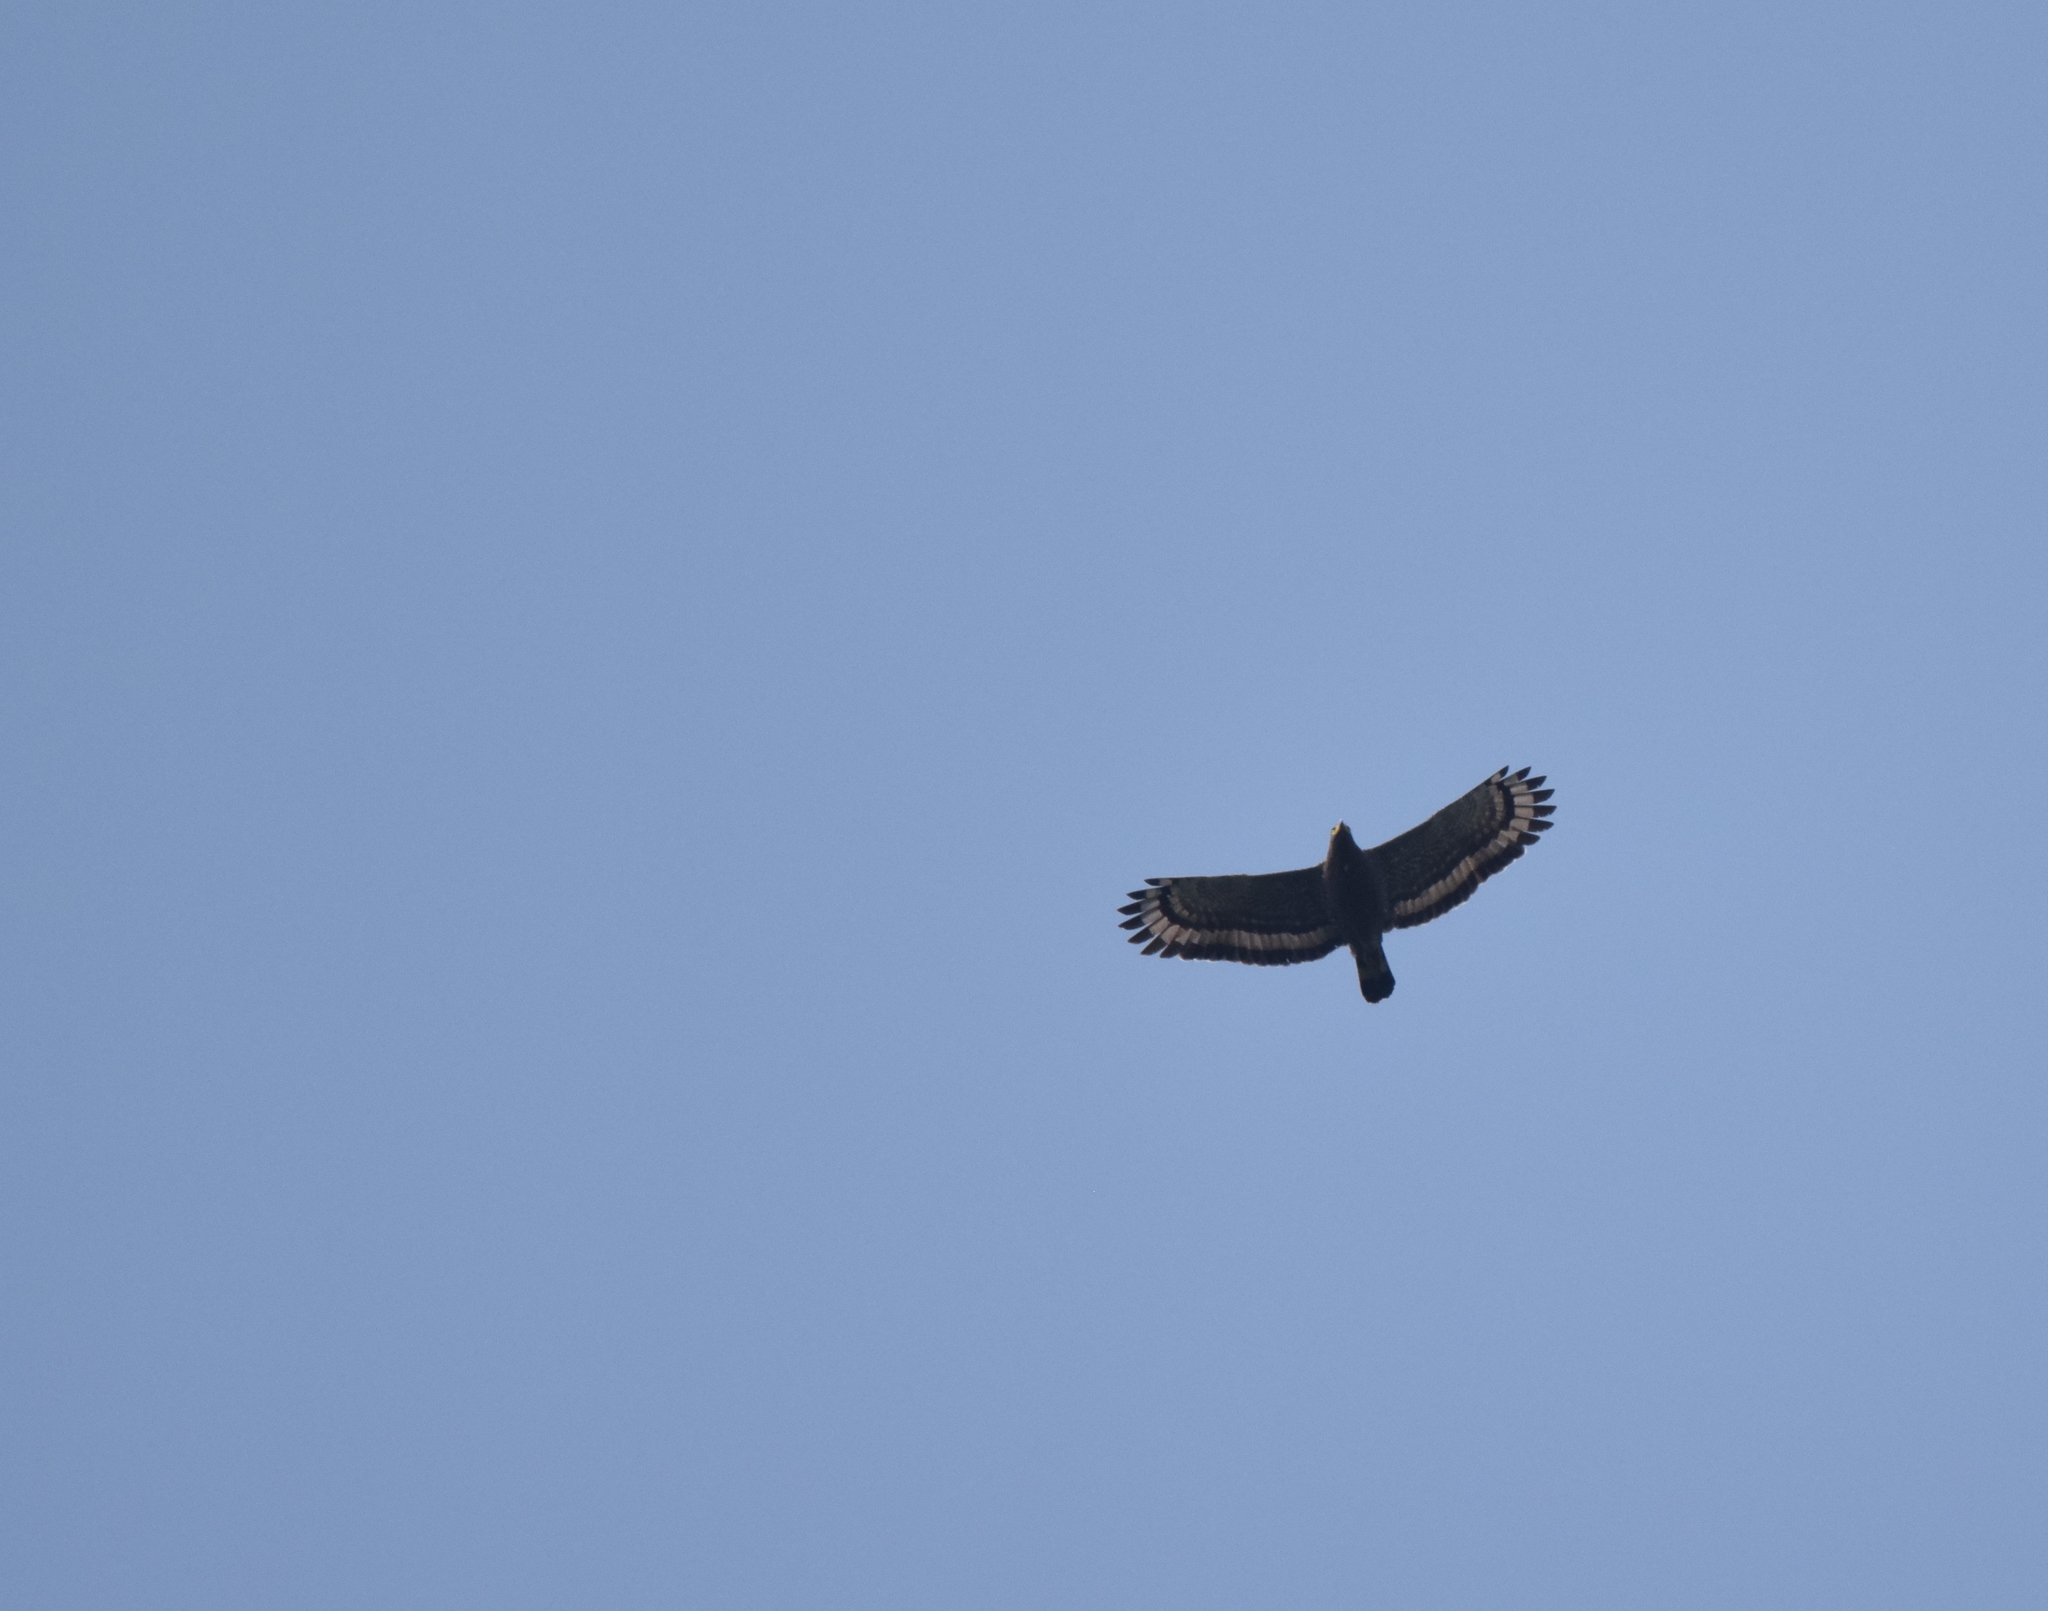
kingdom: Animalia
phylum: Chordata
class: Aves
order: Accipitriformes
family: Accipitridae
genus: Spilornis
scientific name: Spilornis cheela
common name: Crested serpent eagle
